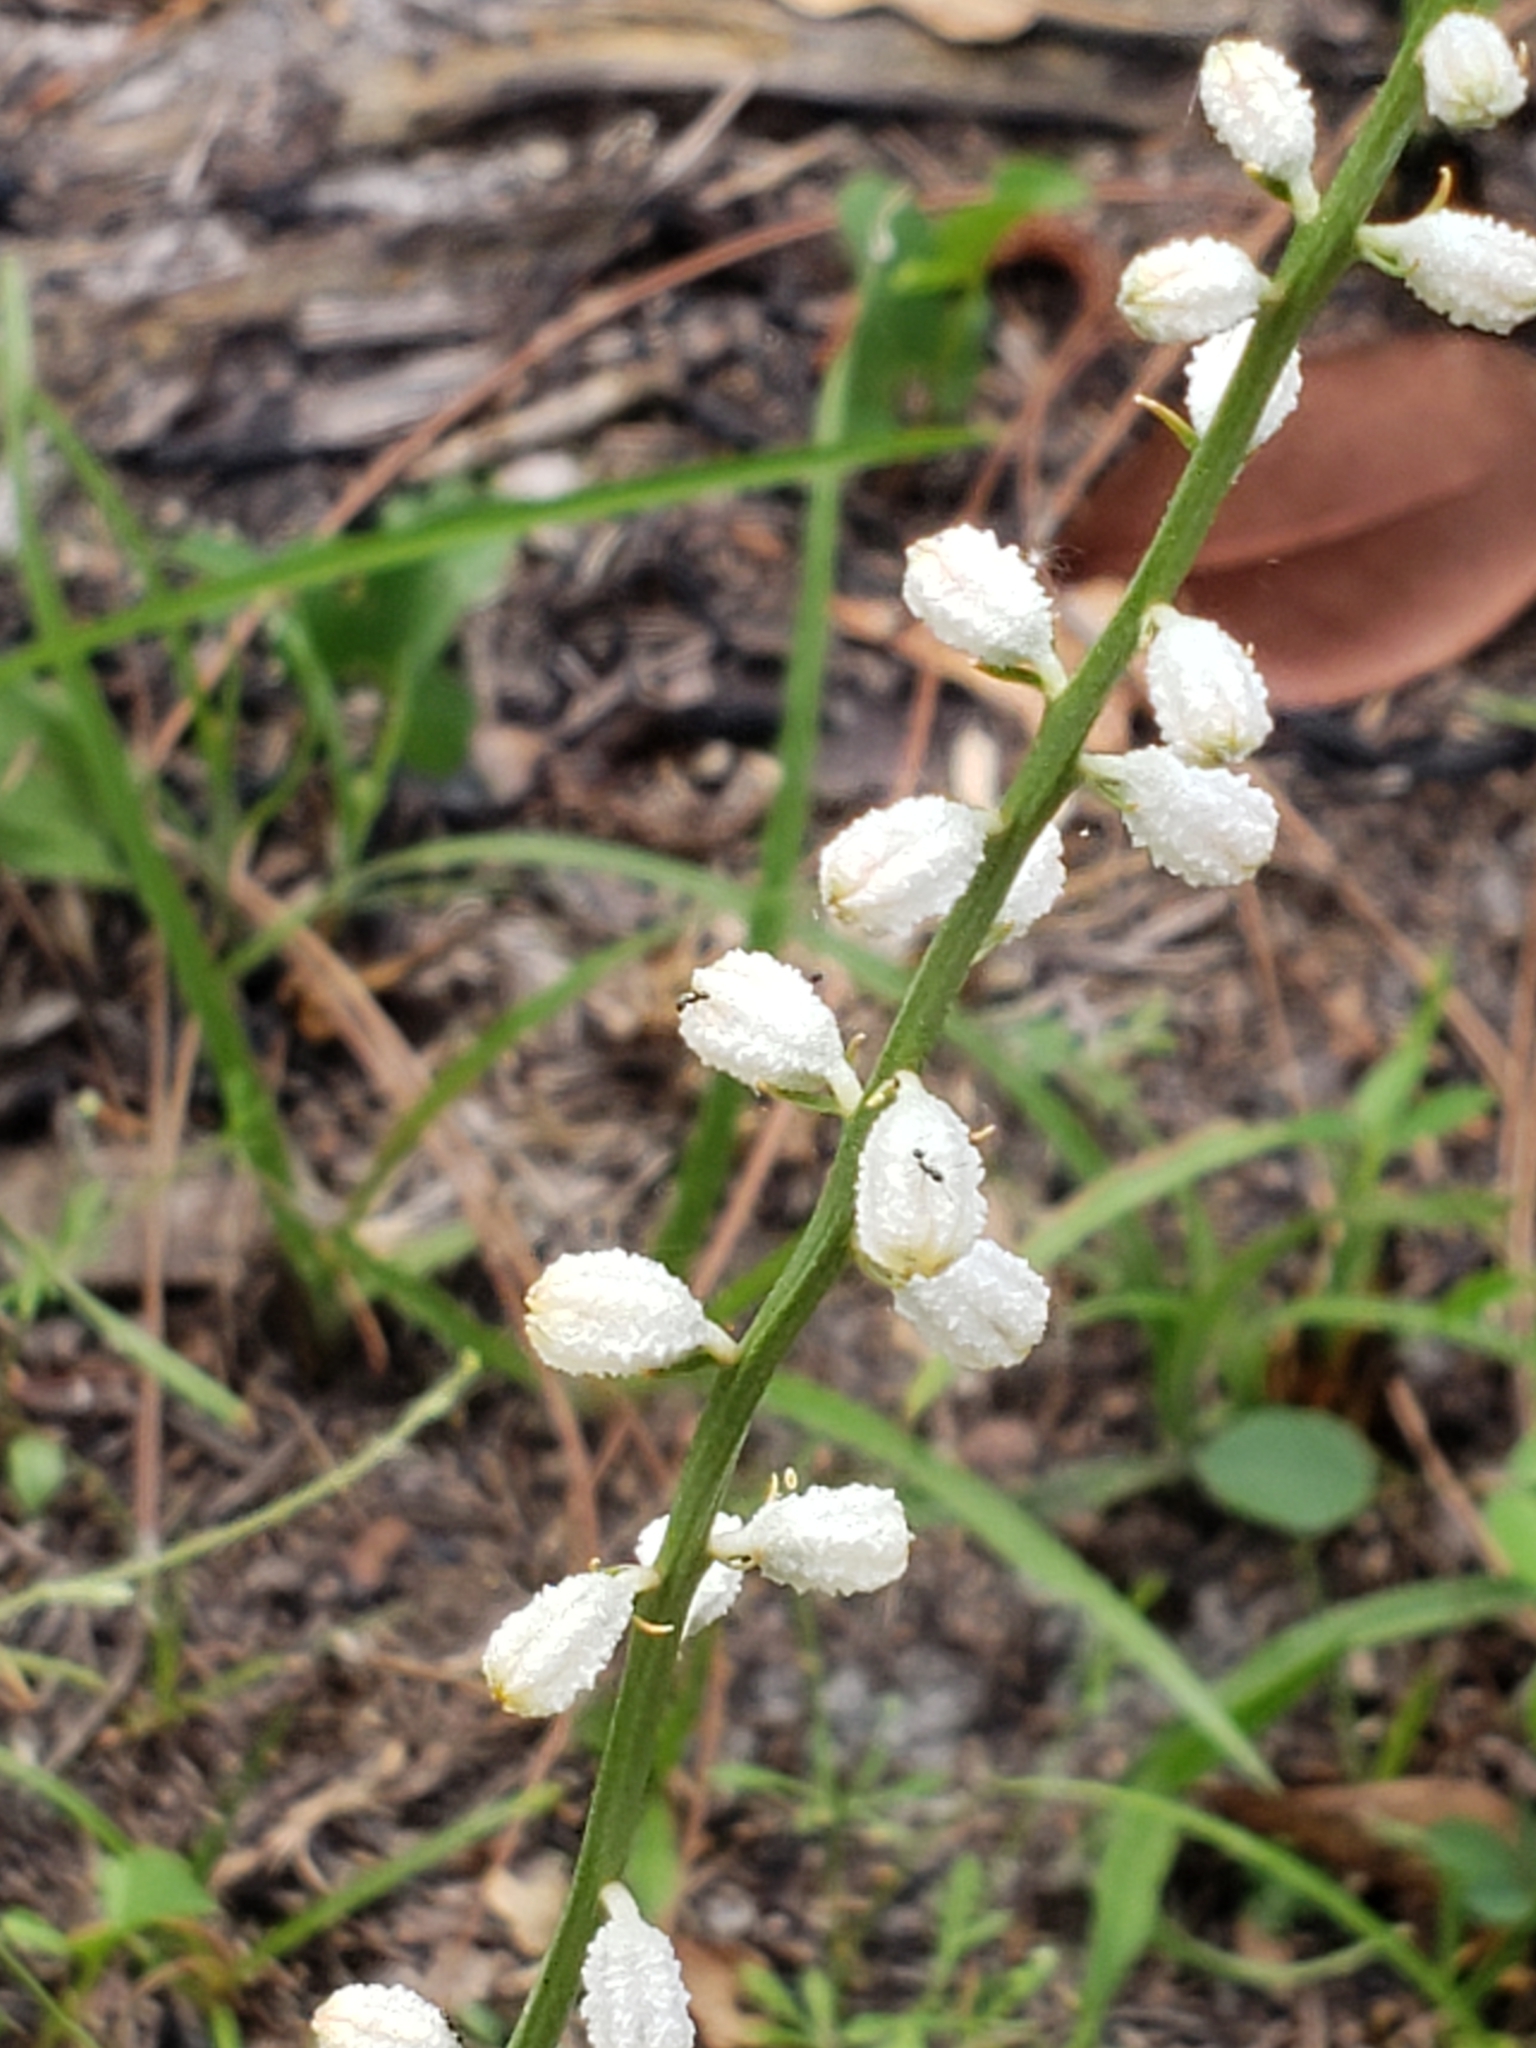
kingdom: Plantae
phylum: Tracheophyta
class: Liliopsida
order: Dioscoreales
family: Nartheciaceae
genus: Aletris
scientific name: Aletris obovata
